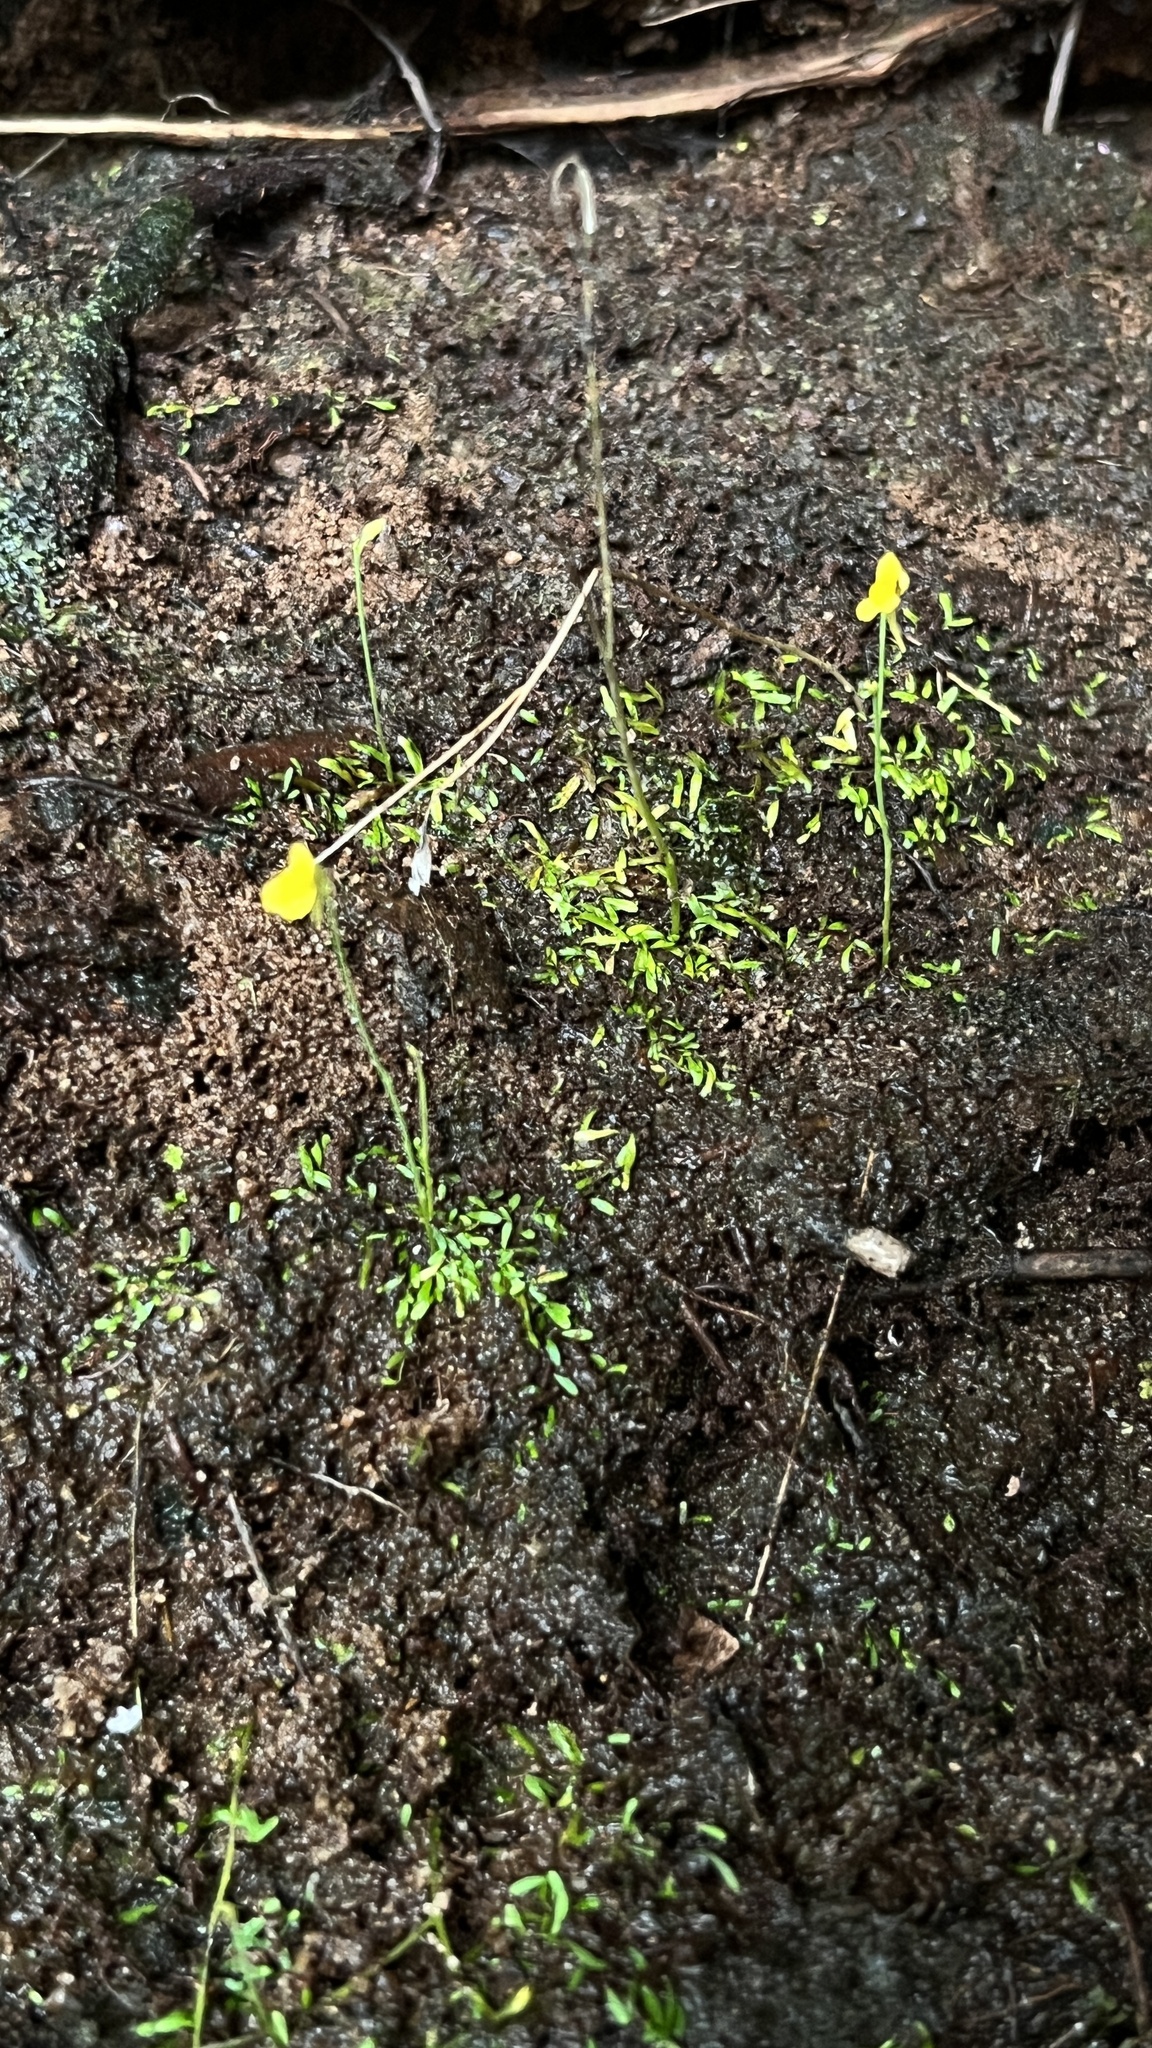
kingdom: Plantae
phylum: Tracheophyta
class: Magnoliopsida
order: Lamiales
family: Lentibulariaceae
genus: Utricularia
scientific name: Utricularia bifida
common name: Bifid bladderwort
